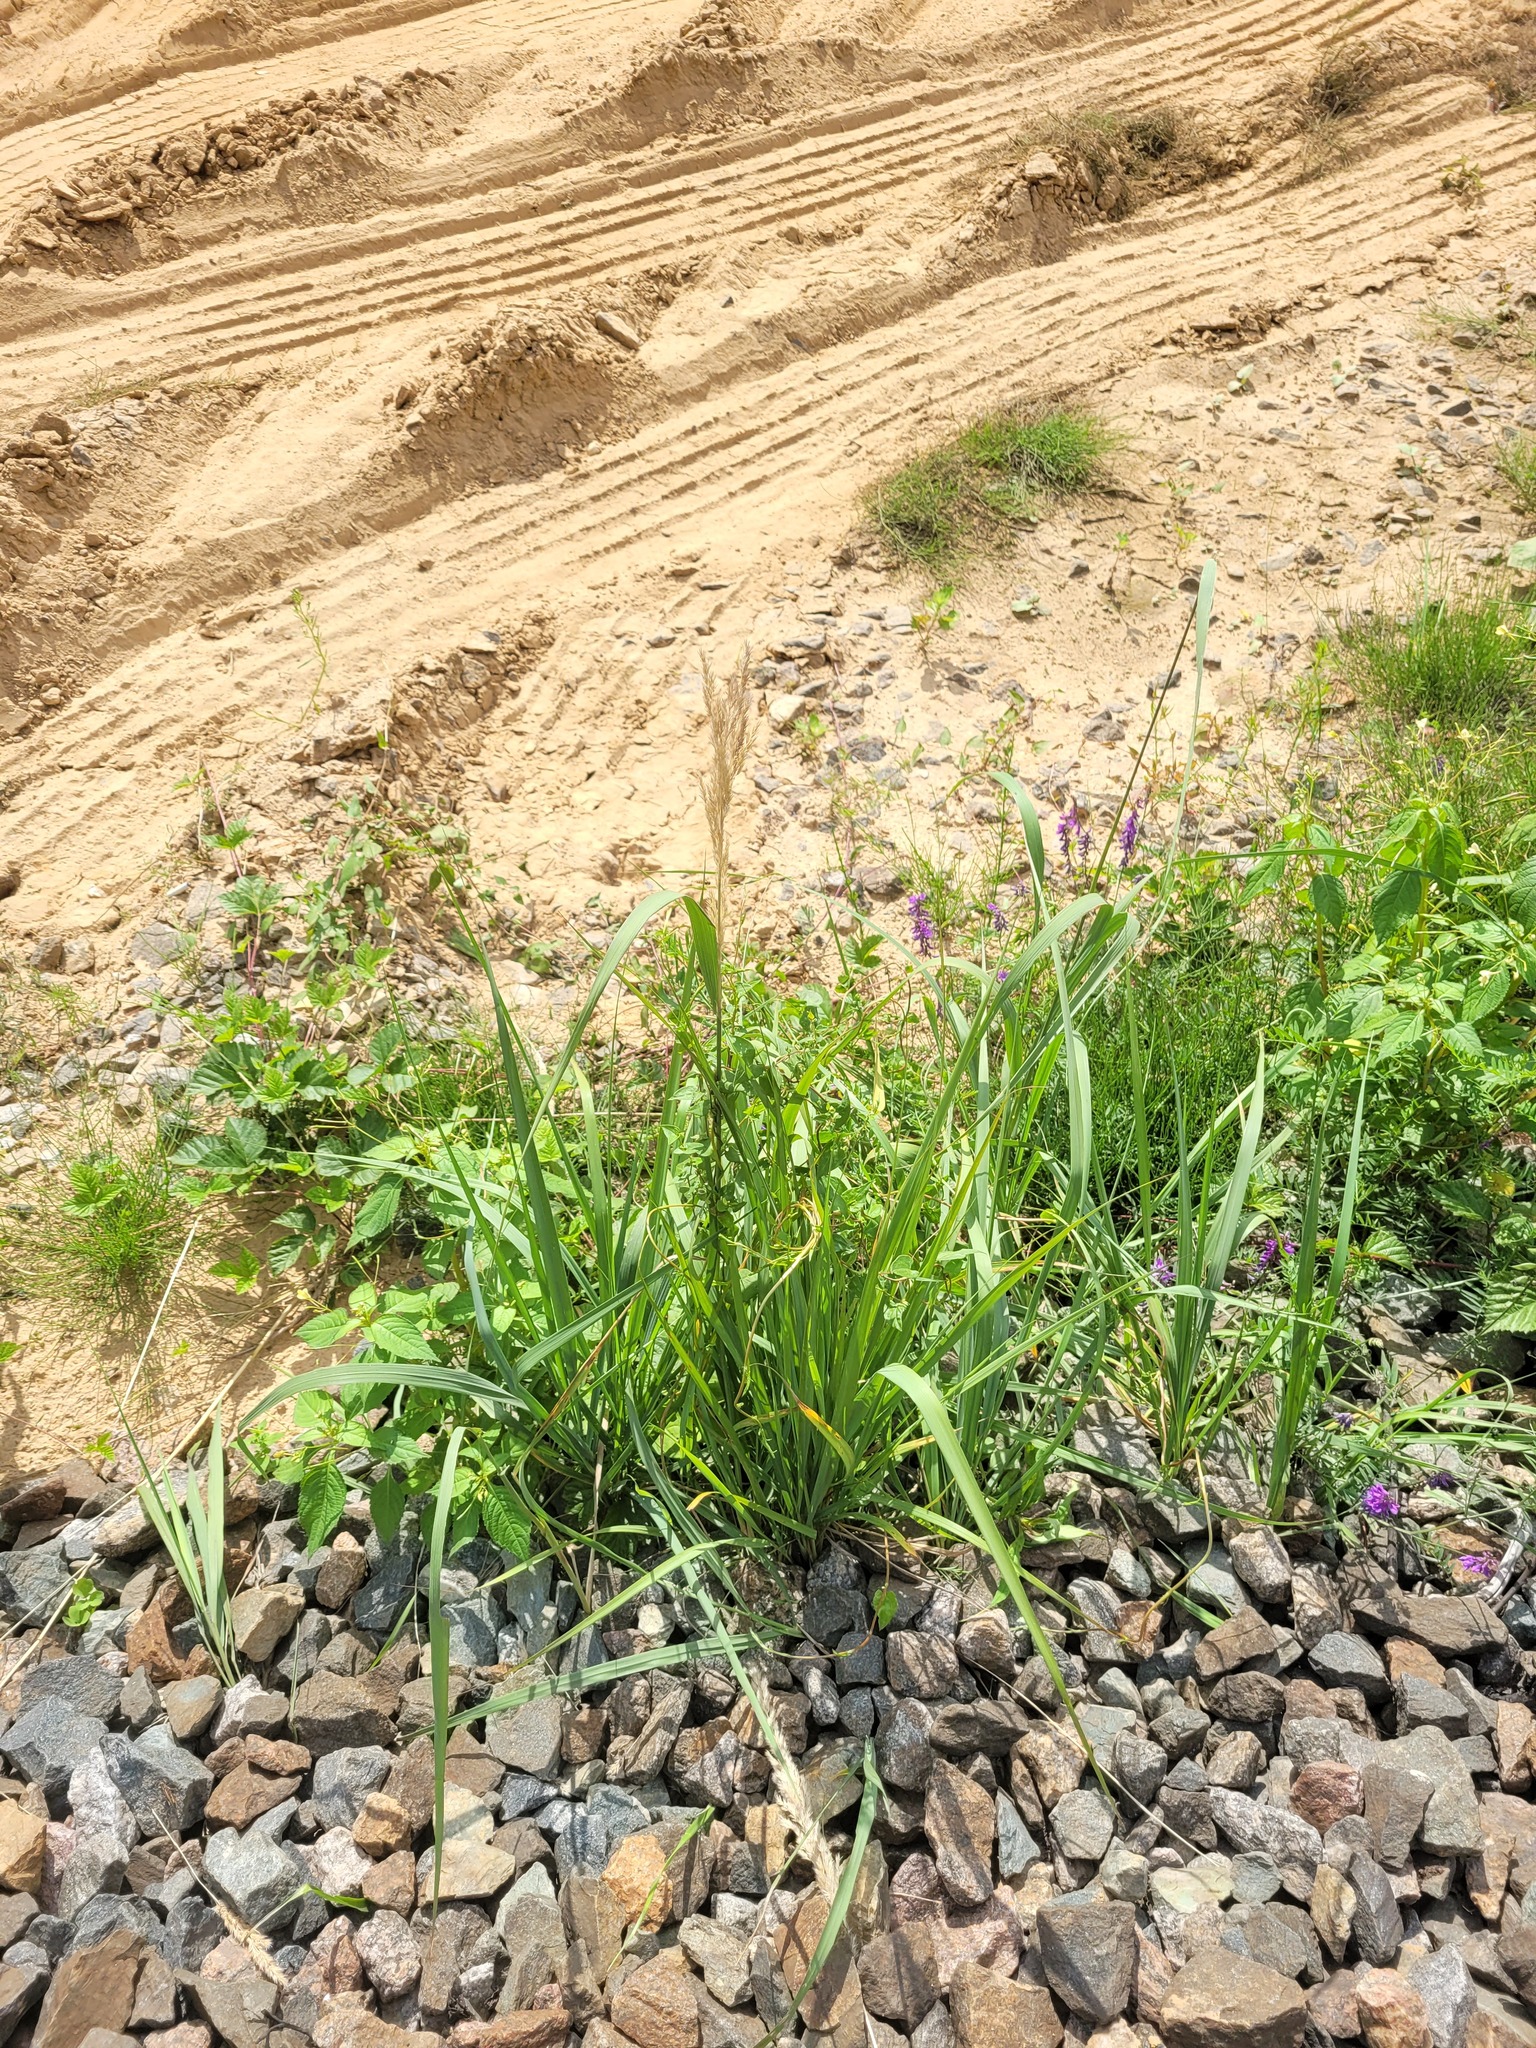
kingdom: Plantae
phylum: Tracheophyta
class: Liliopsida
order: Poales
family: Poaceae
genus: Calamagrostis
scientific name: Calamagrostis epigejos
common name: Wood small-reed
